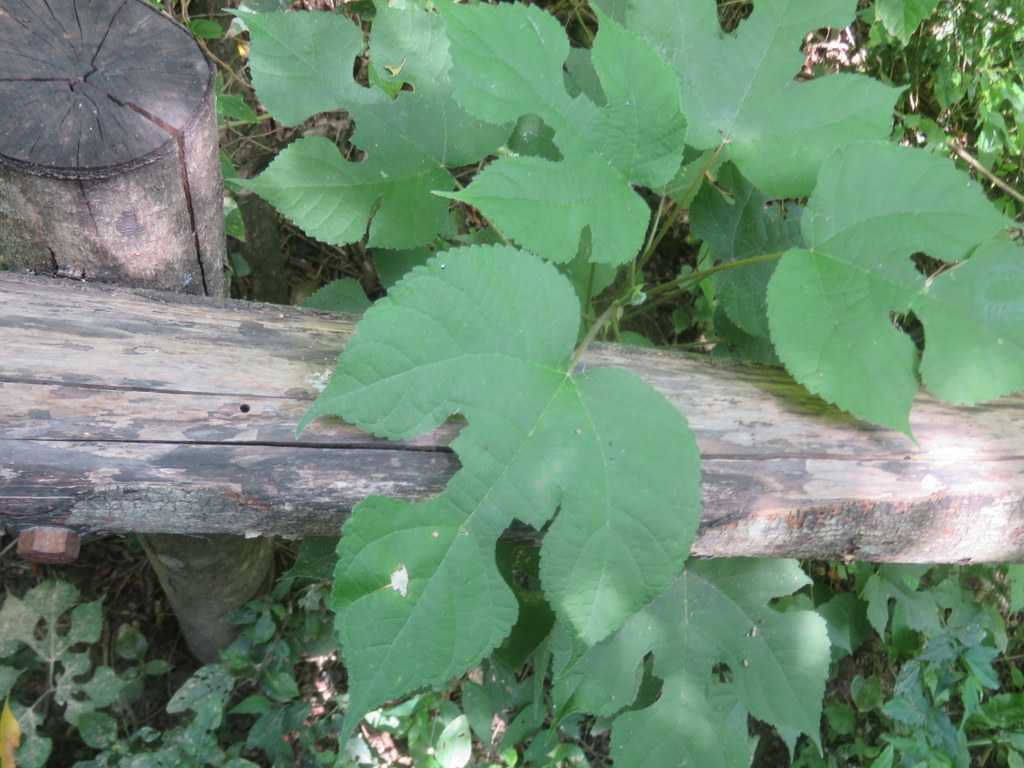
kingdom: Plantae
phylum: Tracheophyta
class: Magnoliopsida
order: Rosales
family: Moraceae
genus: Broussonetia
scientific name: Broussonetia papyrifera
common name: Paper mulberry
